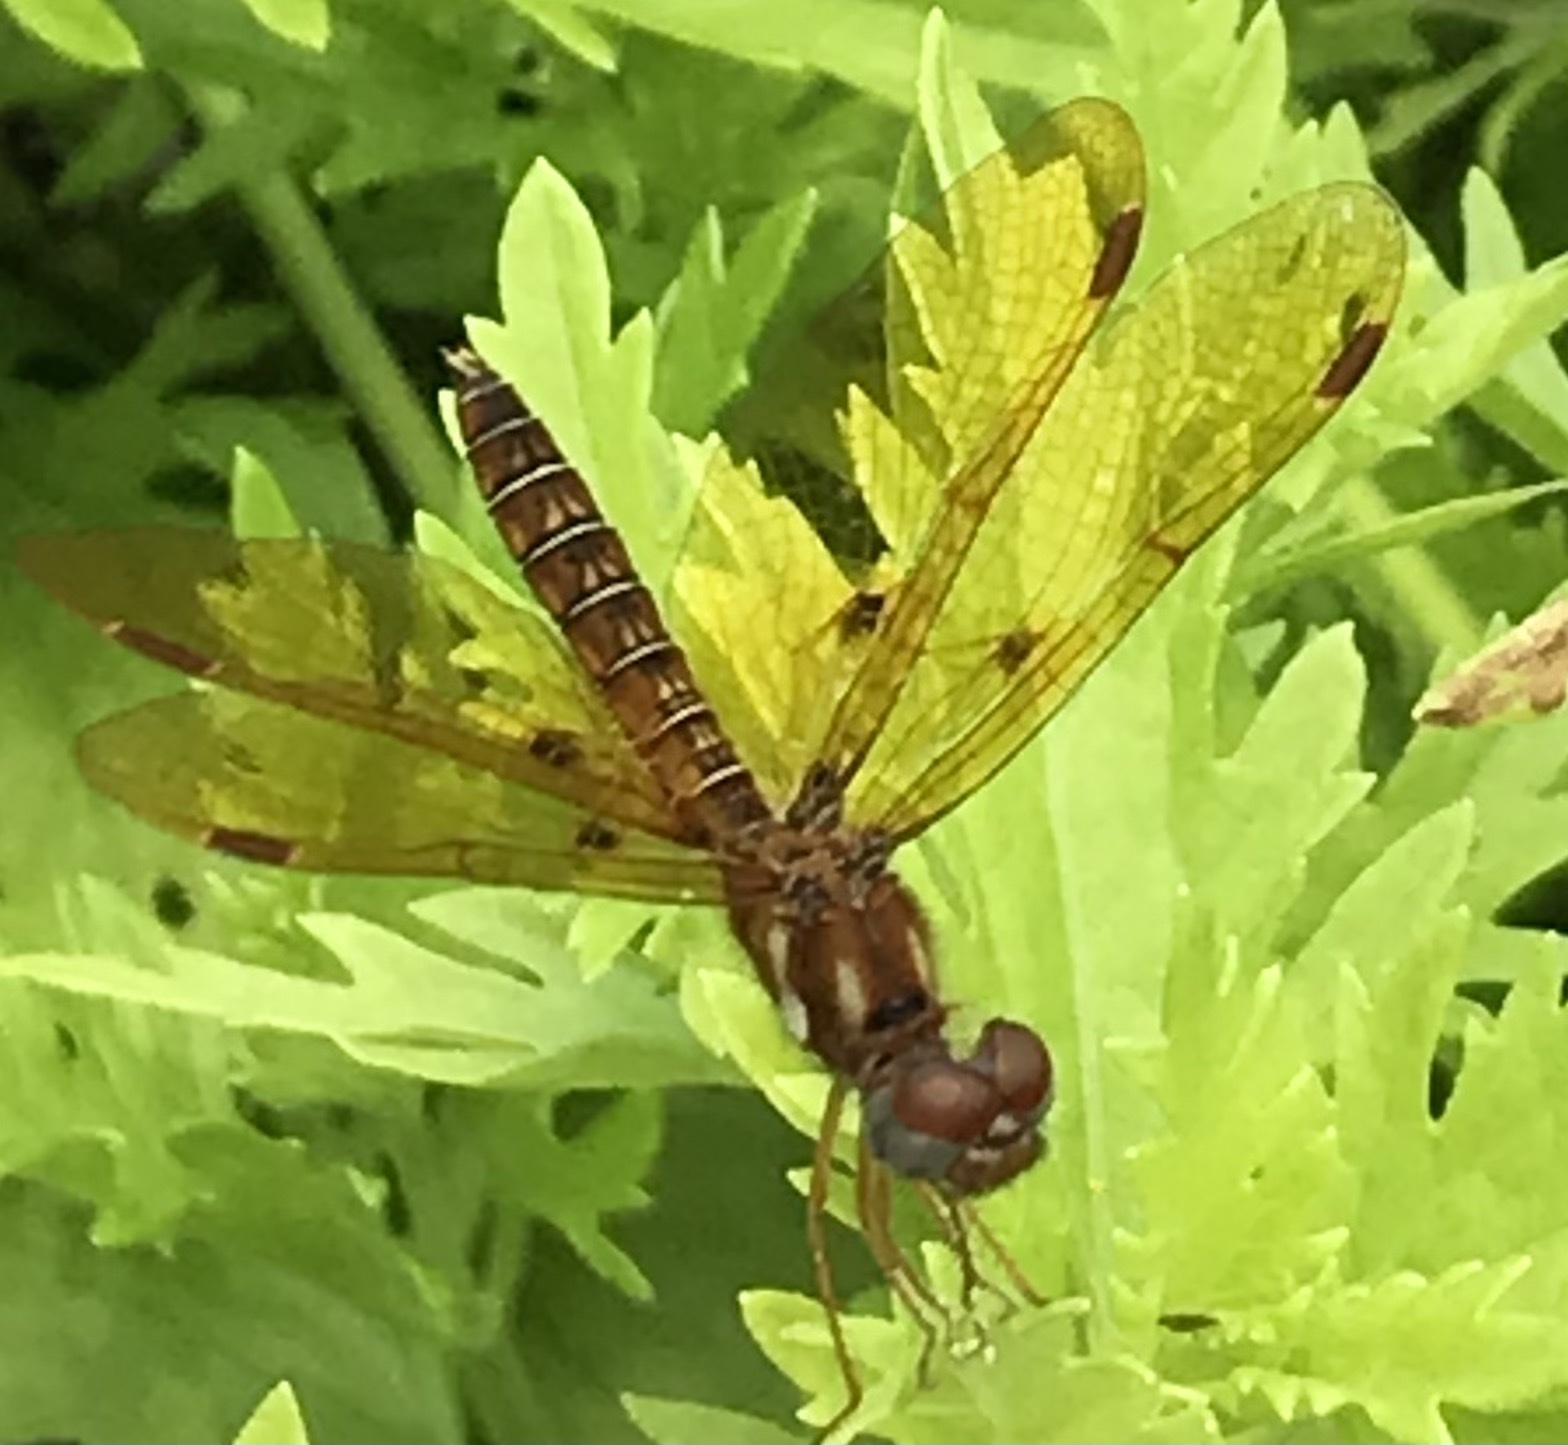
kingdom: Animalia
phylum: Arthropoda
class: Insecta
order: Odonata
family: Libellulidae
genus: Perithemis
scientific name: Perithemis tenera
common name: Eastern amberwing
